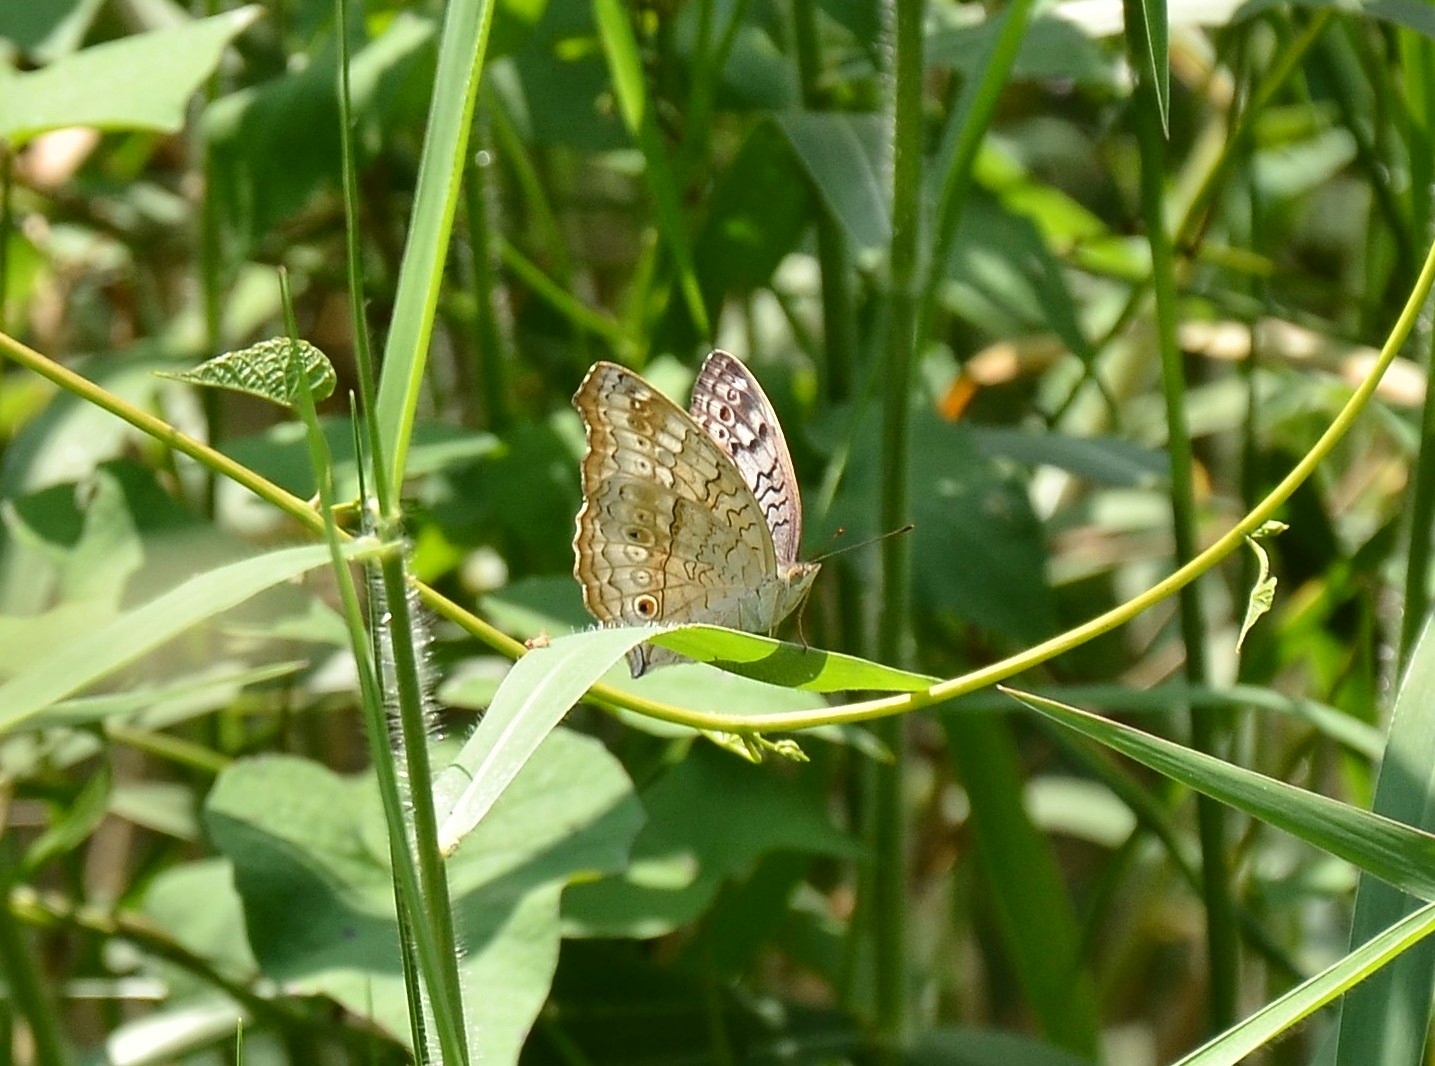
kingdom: Animalia
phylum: Arthropoda
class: Insecta
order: Lepidoptera
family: Nymphalidae
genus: Junonia
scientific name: Junonia atlites
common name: Grey pansy
